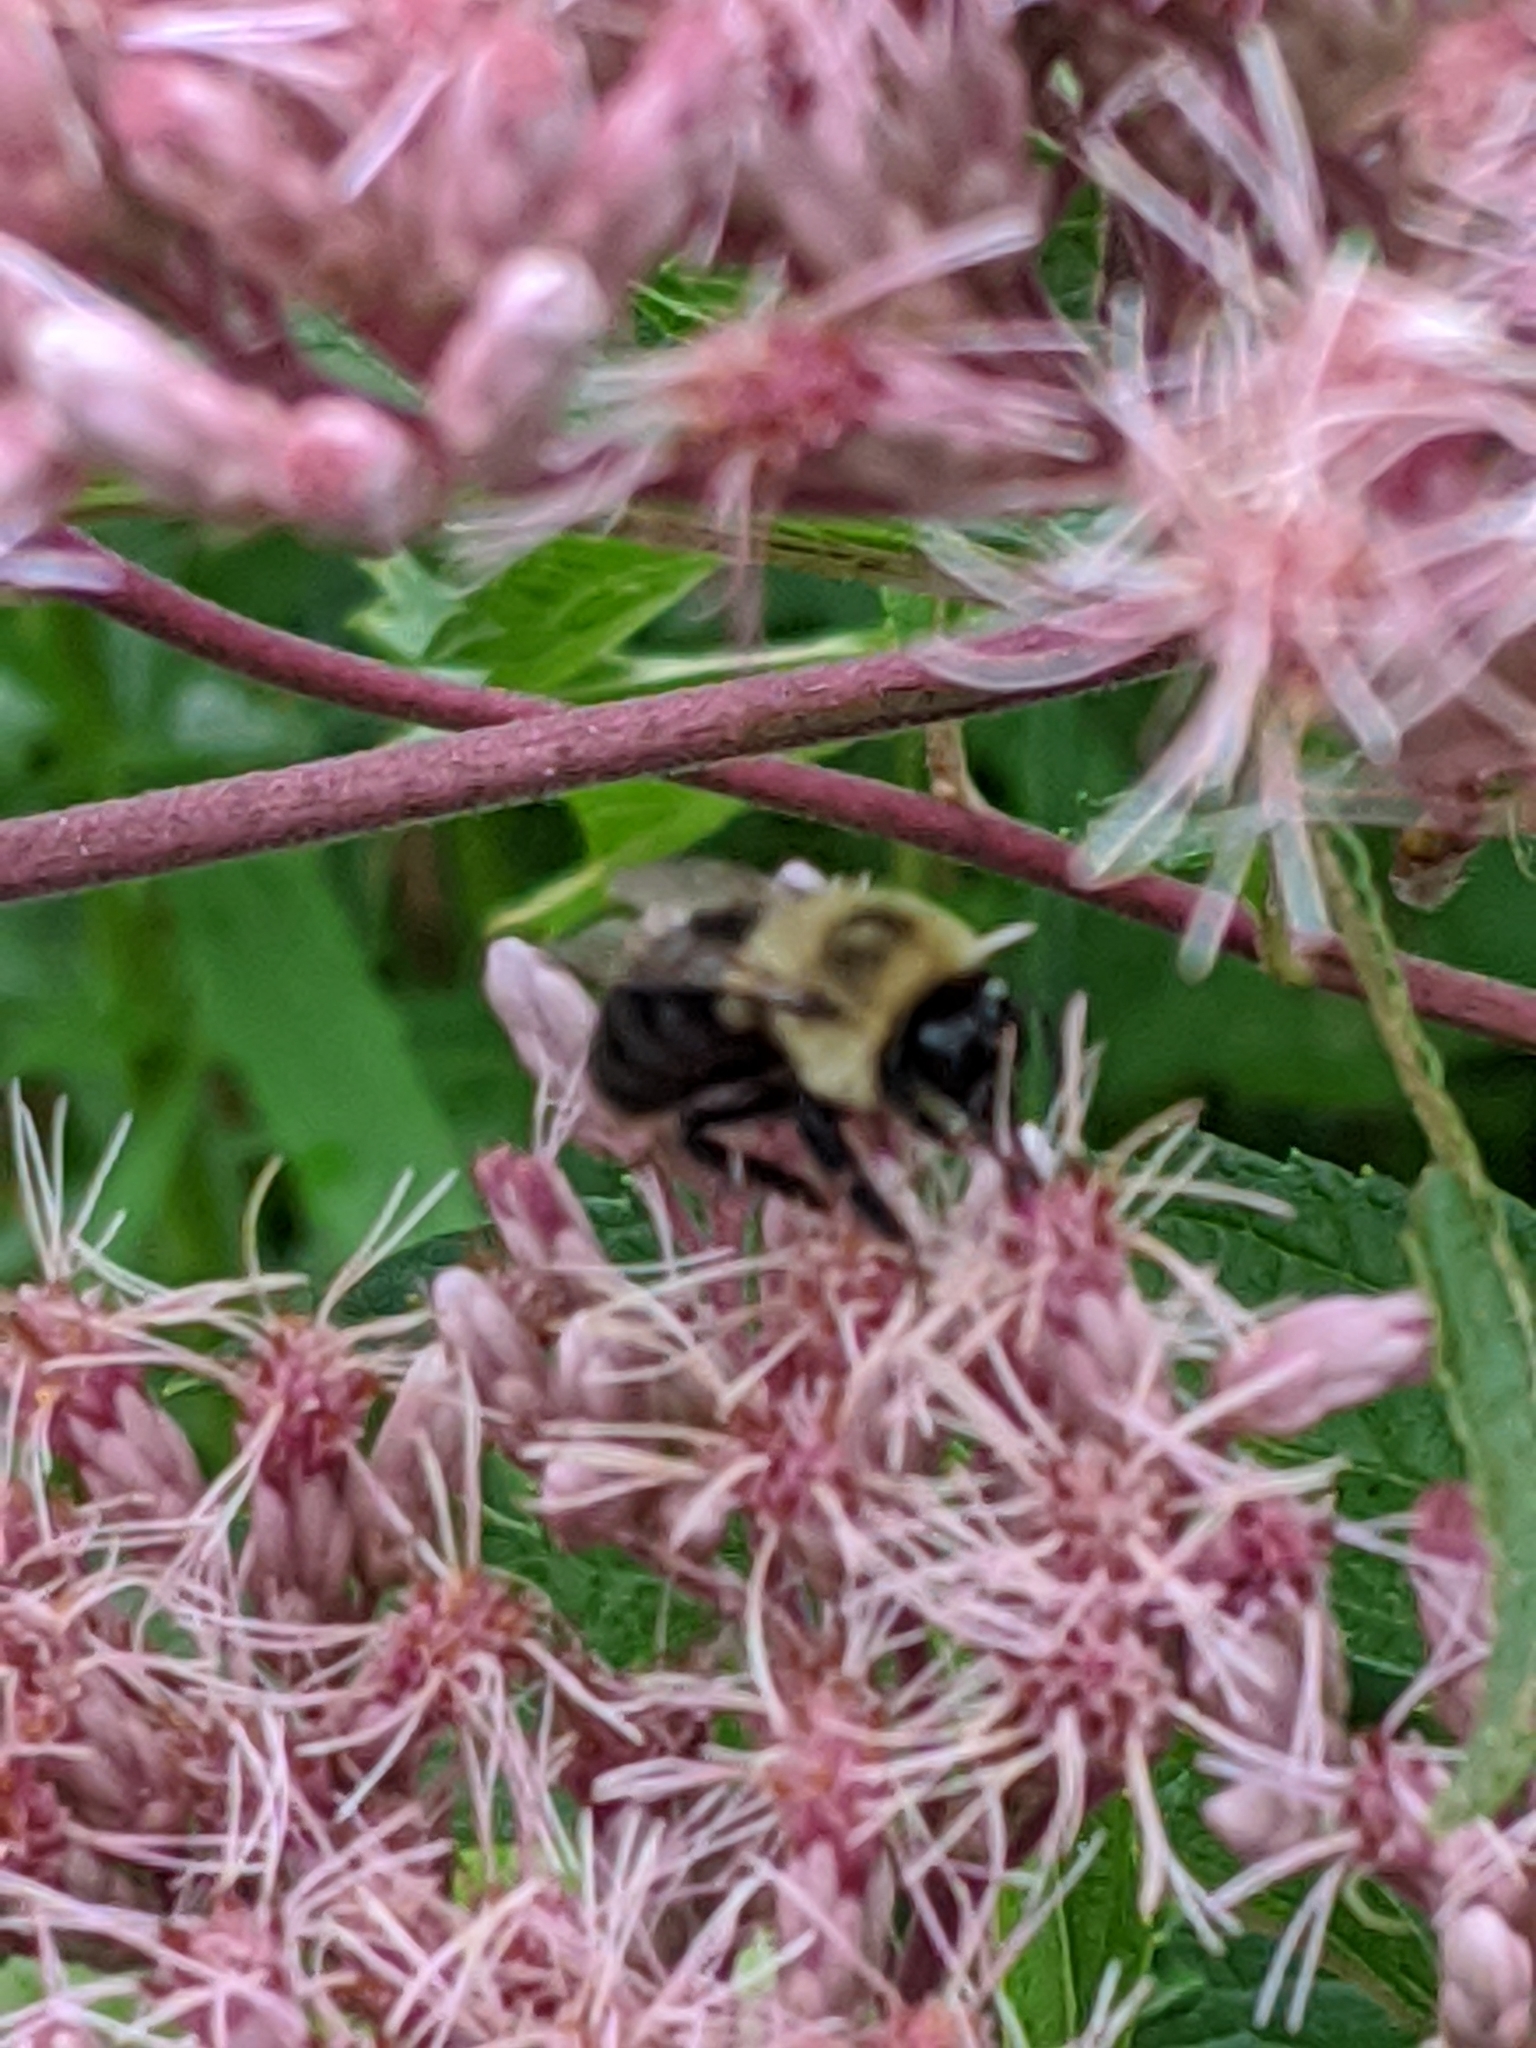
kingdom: Animalia
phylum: Arthropoda
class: Insecta
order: Hymenoptera
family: Apidae
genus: Bombus
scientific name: Bombus impatiens
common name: Common eastern bumble bee
